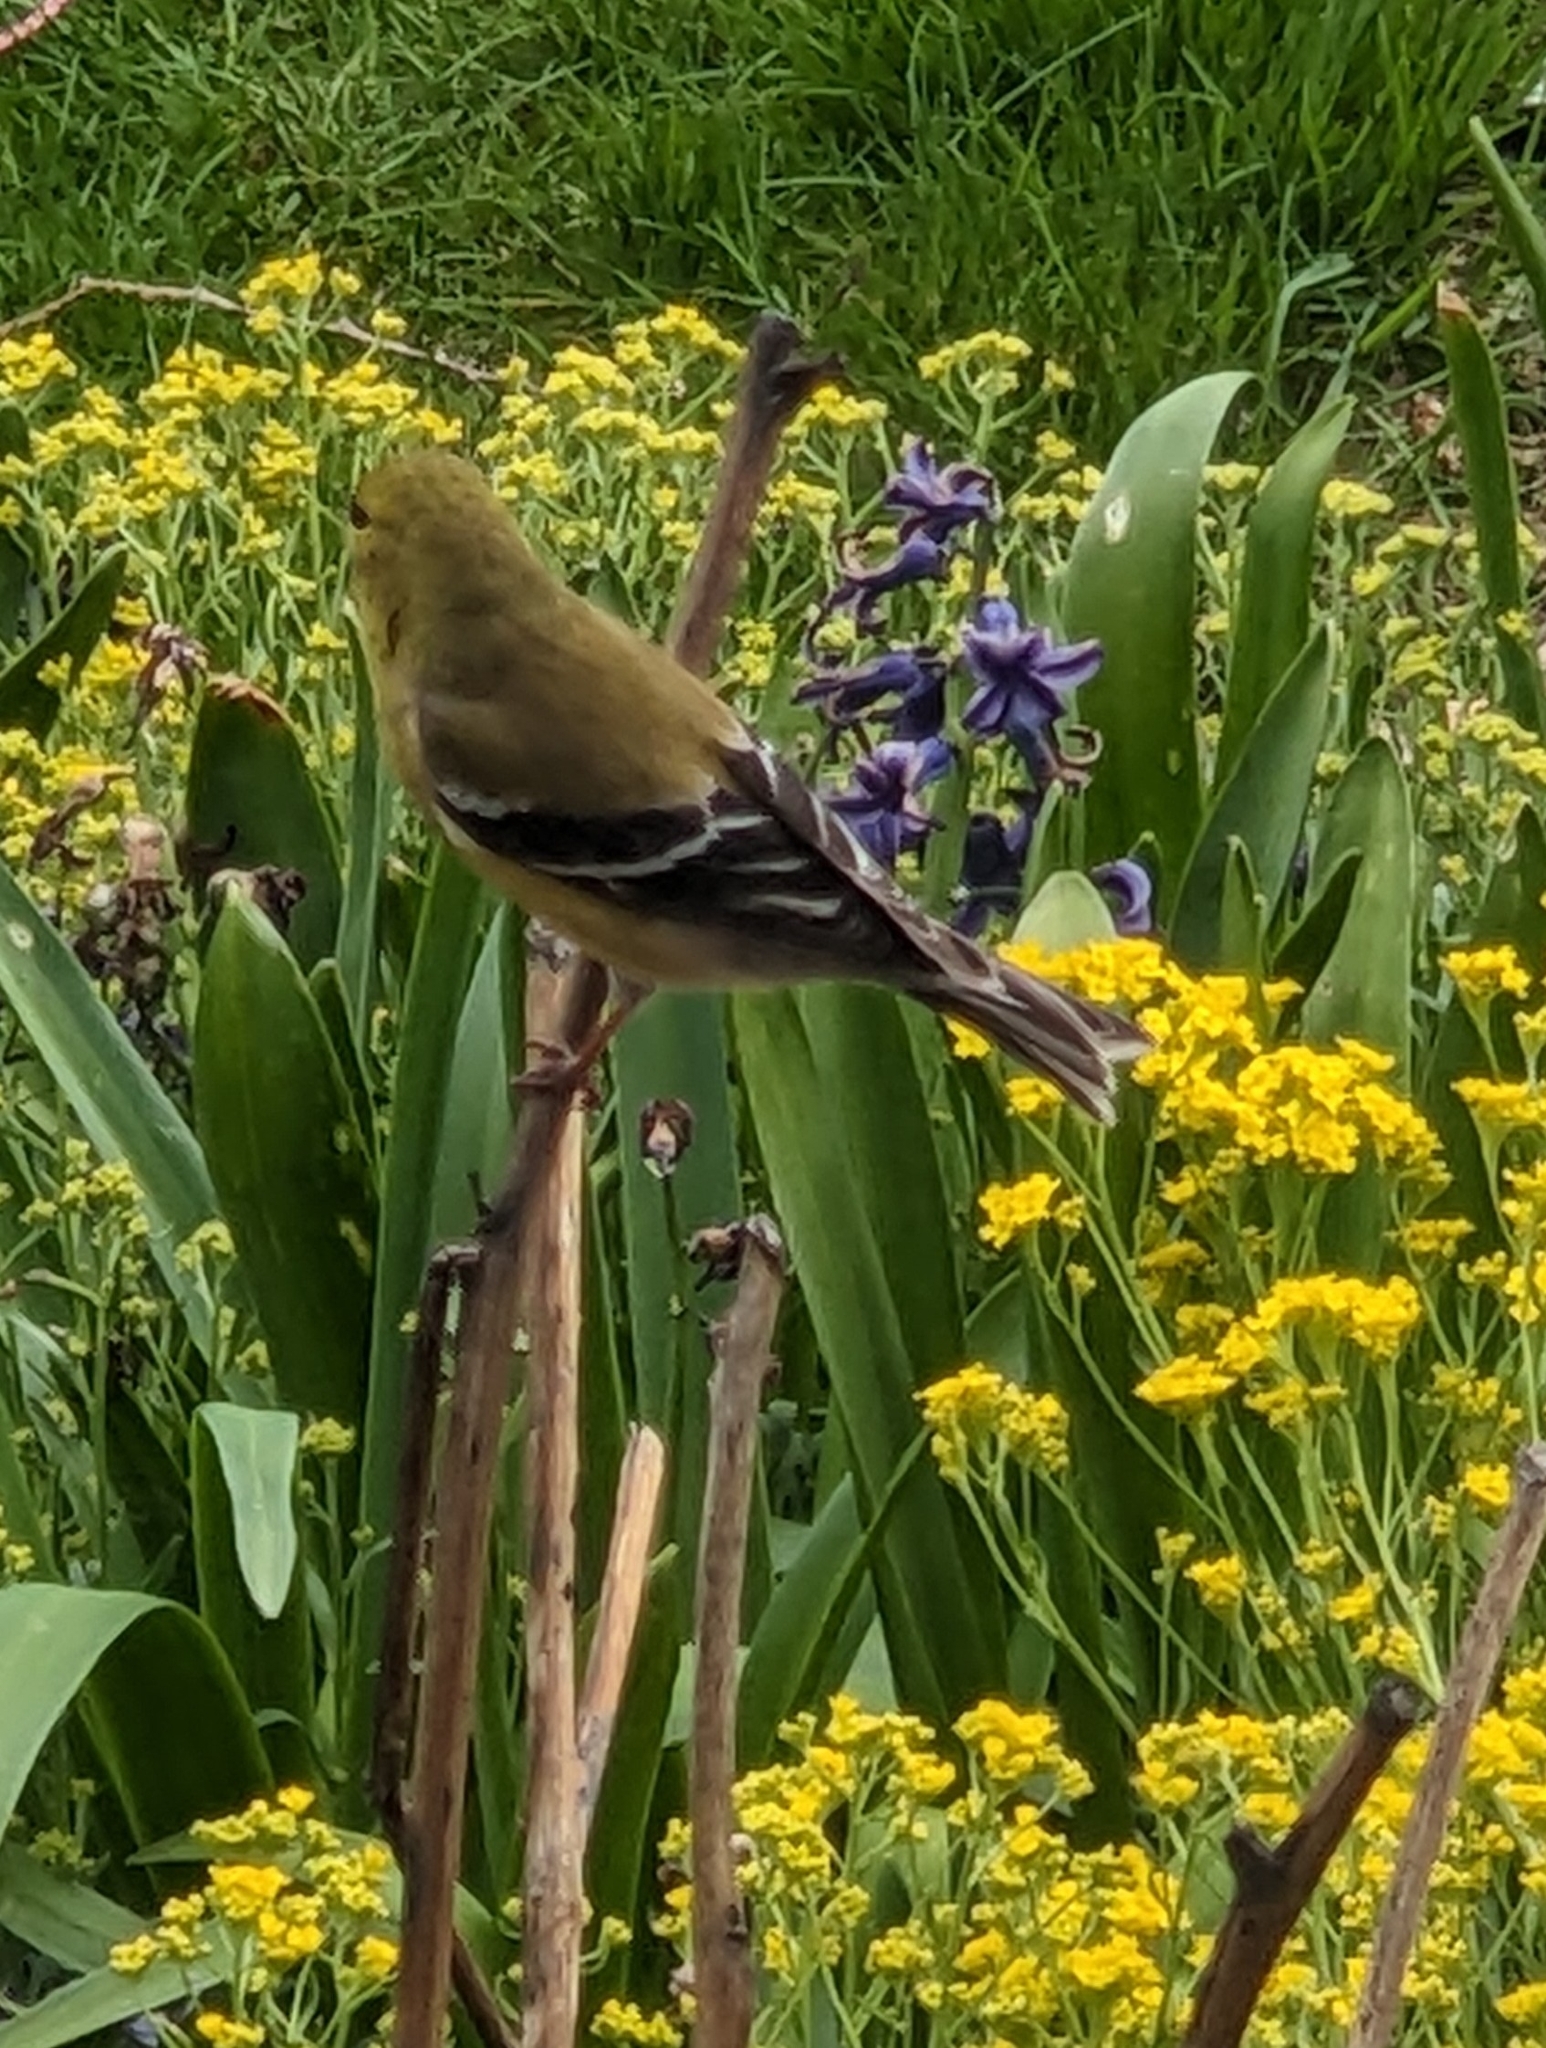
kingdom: Animalia
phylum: Chordata
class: Aves
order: Passeriformes
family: Fringillidae
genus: Spinus
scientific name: Spinus tristis
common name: American goldfinch
